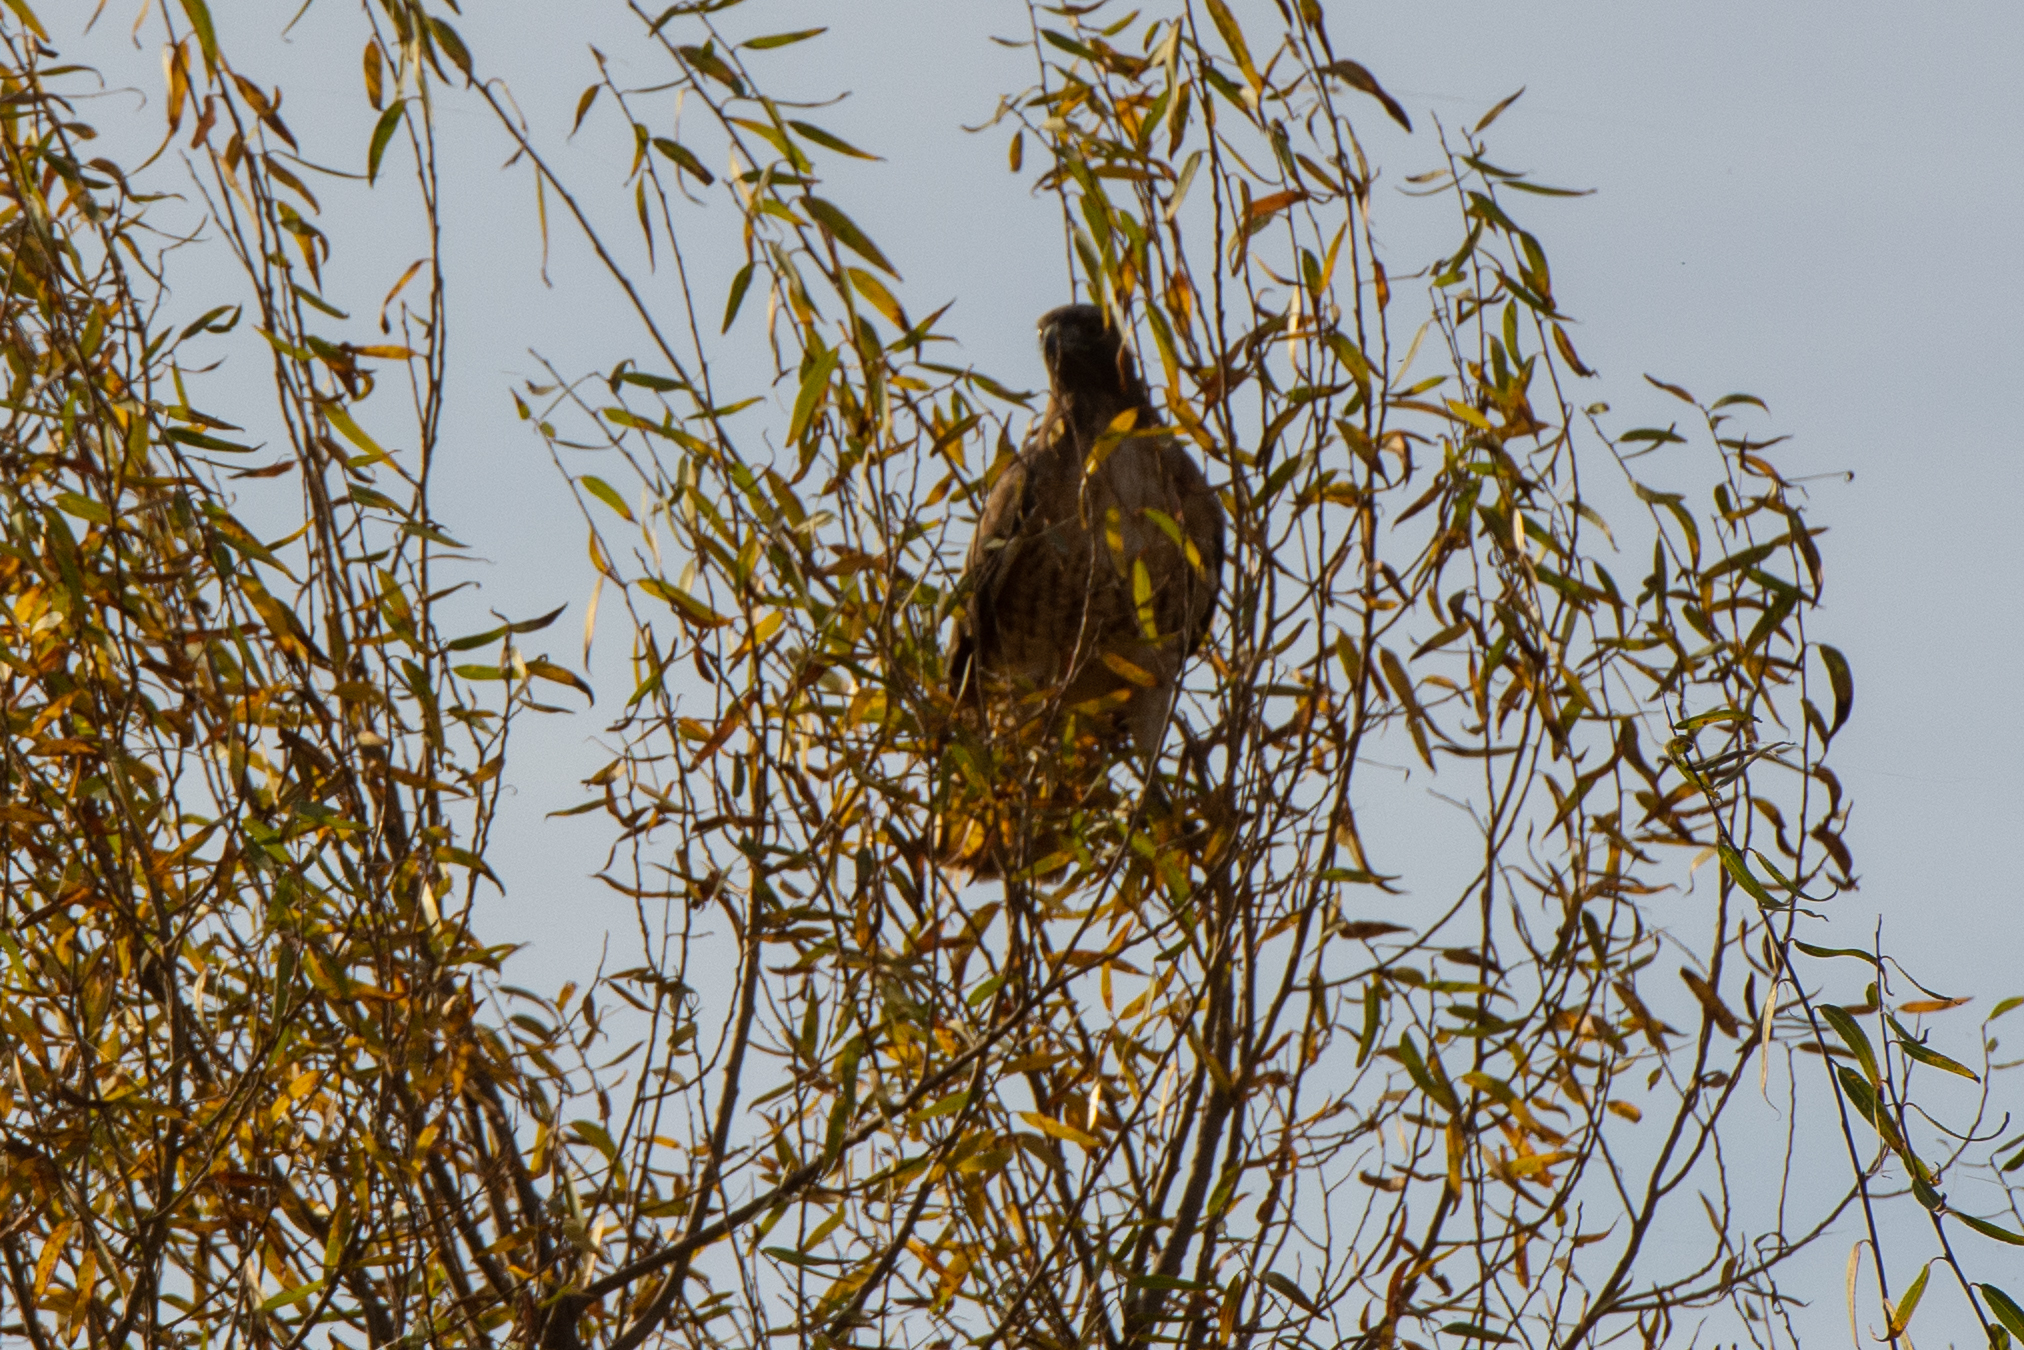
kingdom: Animalia
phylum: Chordata
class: Aves
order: Accipitriformes
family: Accipitridae
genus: Buteo
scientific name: Buteo jamaicensis
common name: Red-tailed hawk
